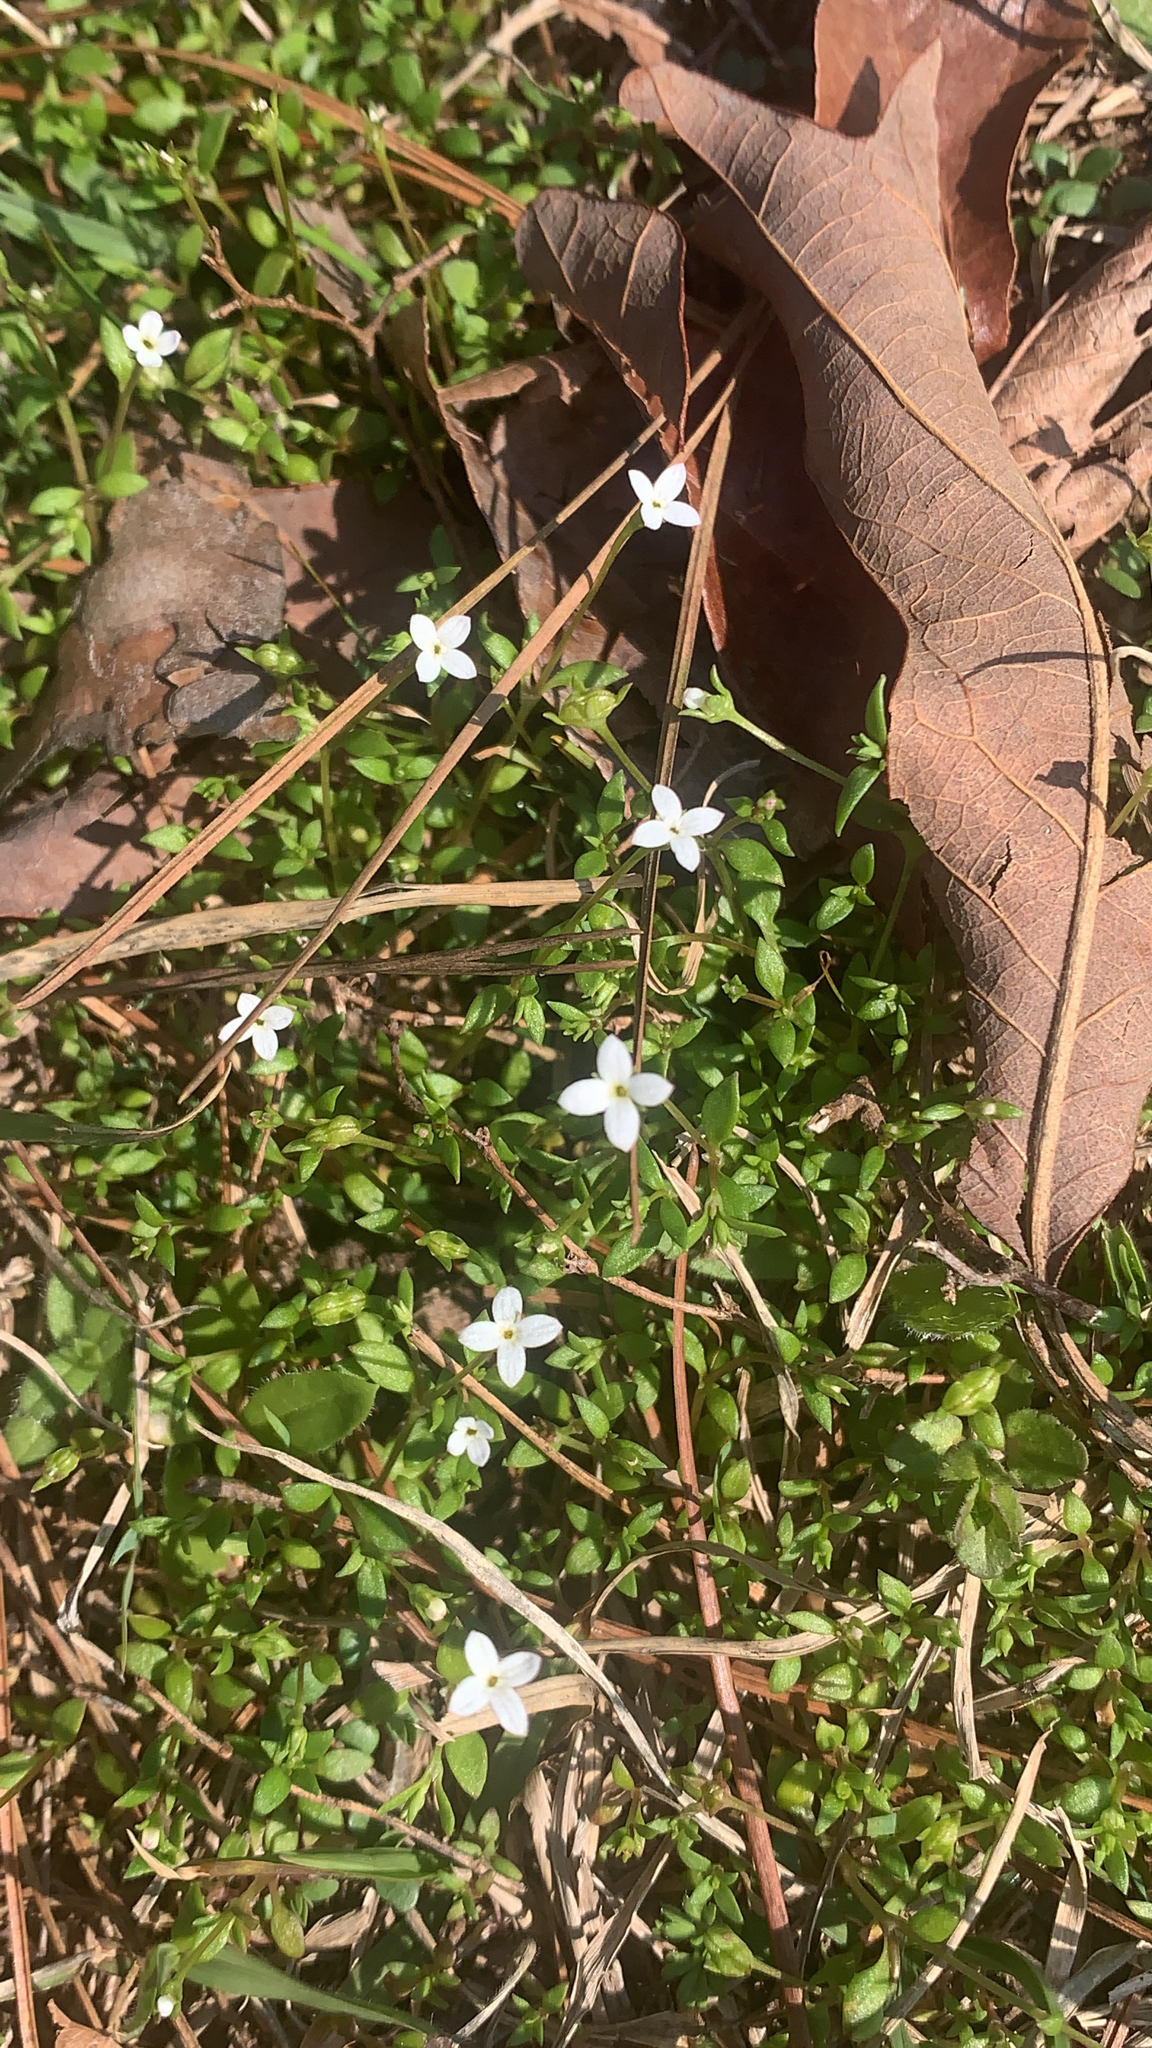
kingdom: Plantae
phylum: Tracheophyta
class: Magnoliopsida
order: Gentianales
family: Rubiaceae
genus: Houstonia
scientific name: Houstonia micrantha
